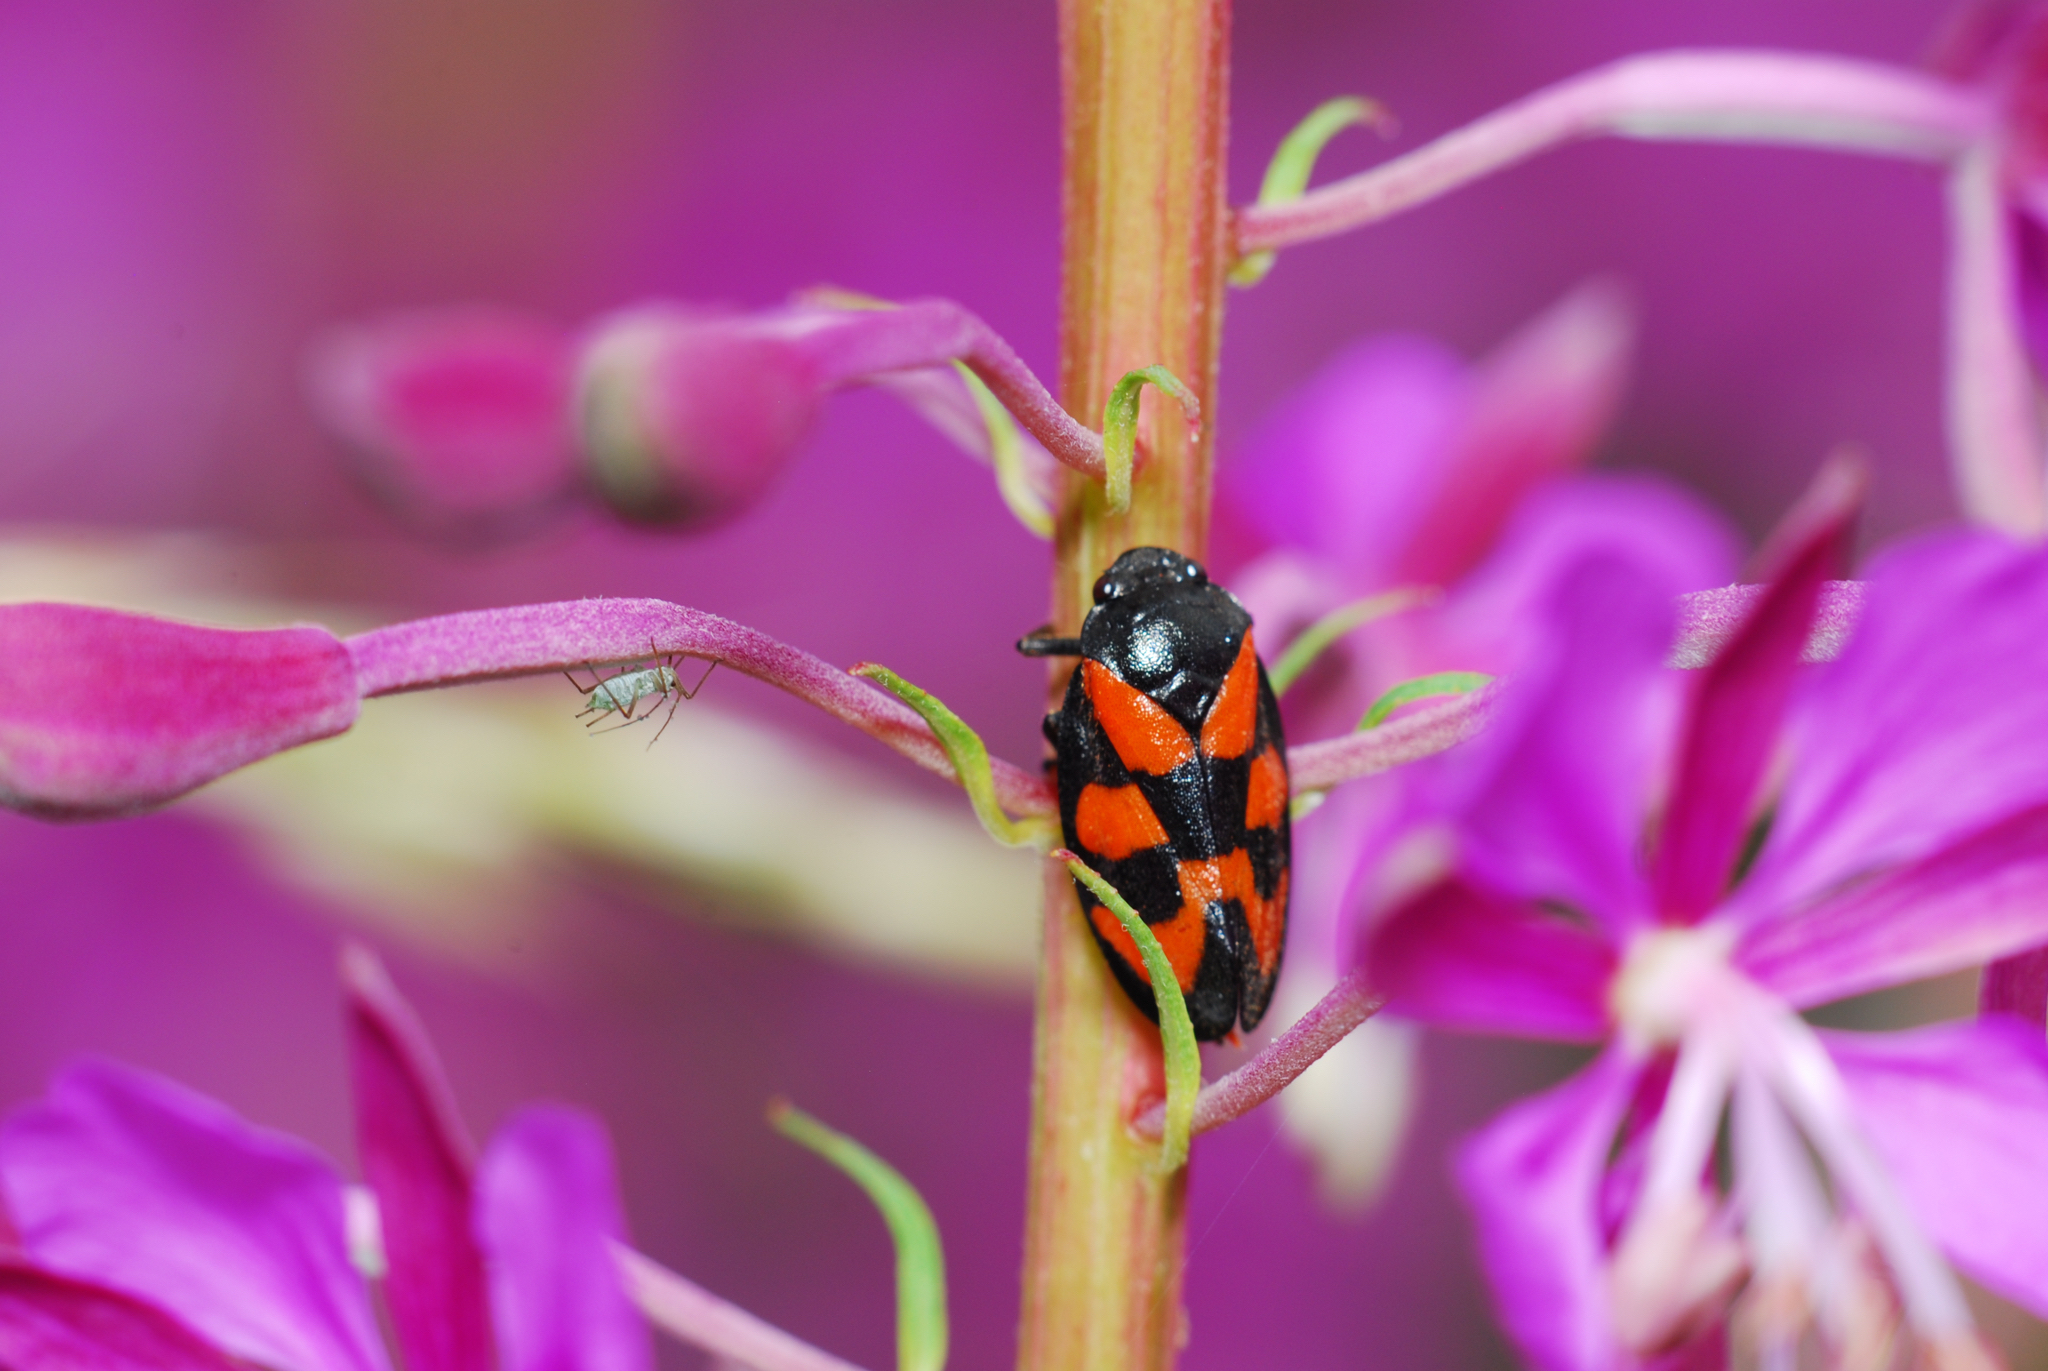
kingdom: Animalia
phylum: Arthropoda
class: Insecta
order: Hemiptera
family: Cercopidae
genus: Cercopis
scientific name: Cercopis vulnerata
